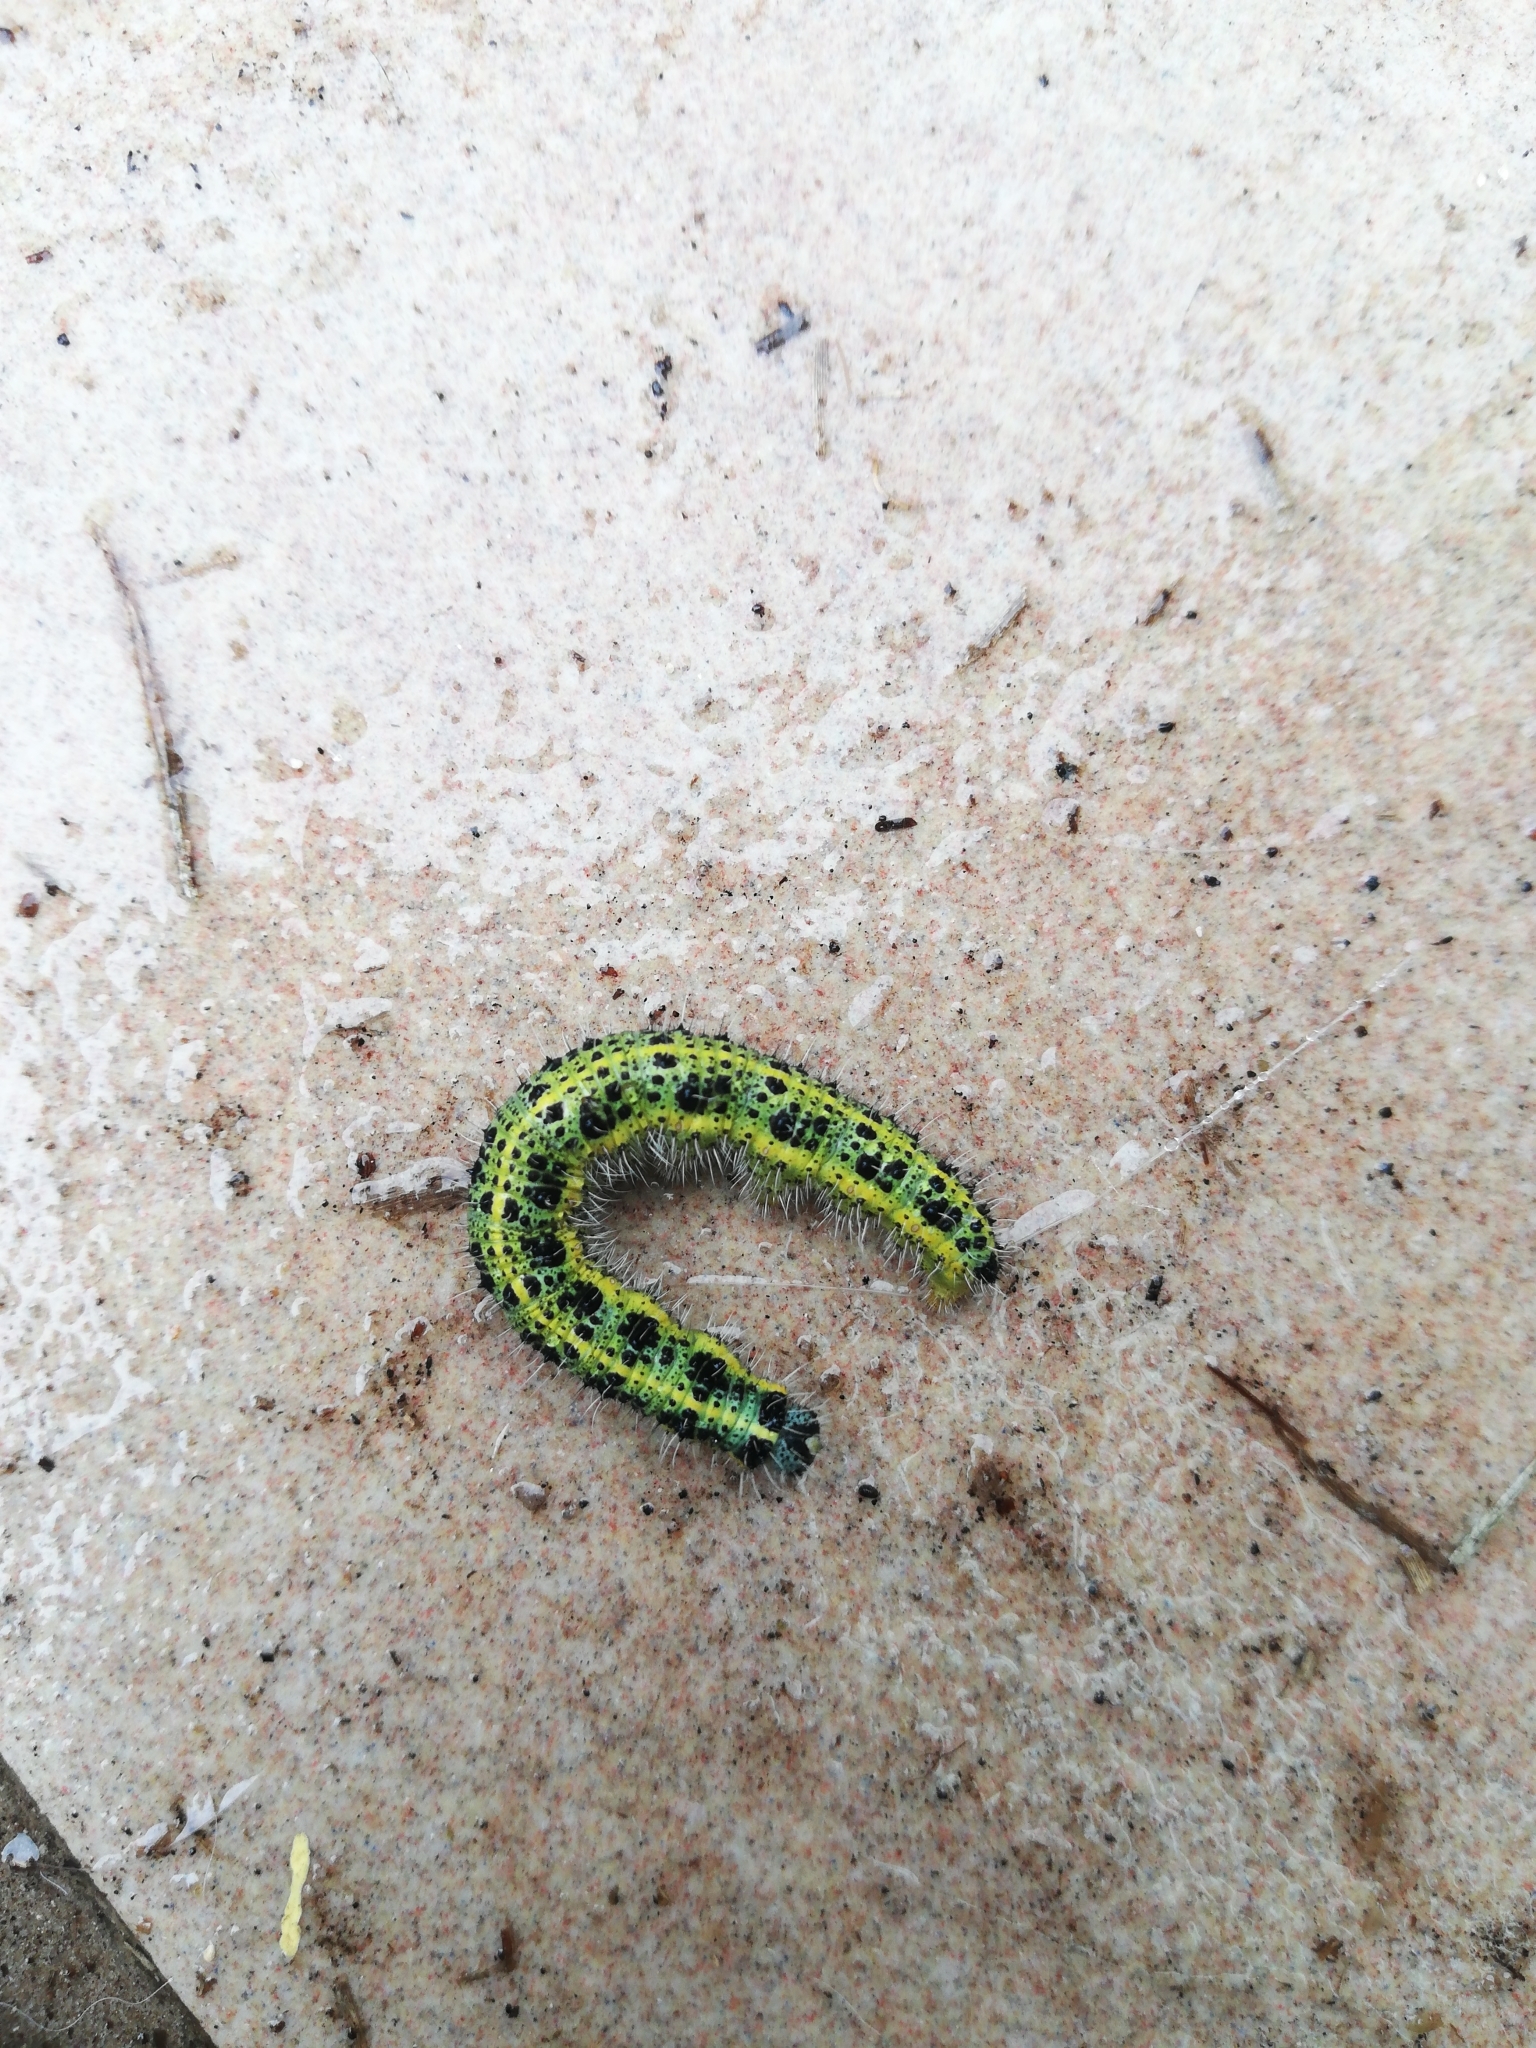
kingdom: Animalia
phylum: Arthropoda
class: Insecta
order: Lepidoptera
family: Pieridae
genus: Pieris
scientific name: Pieris brassicae
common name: Large white
